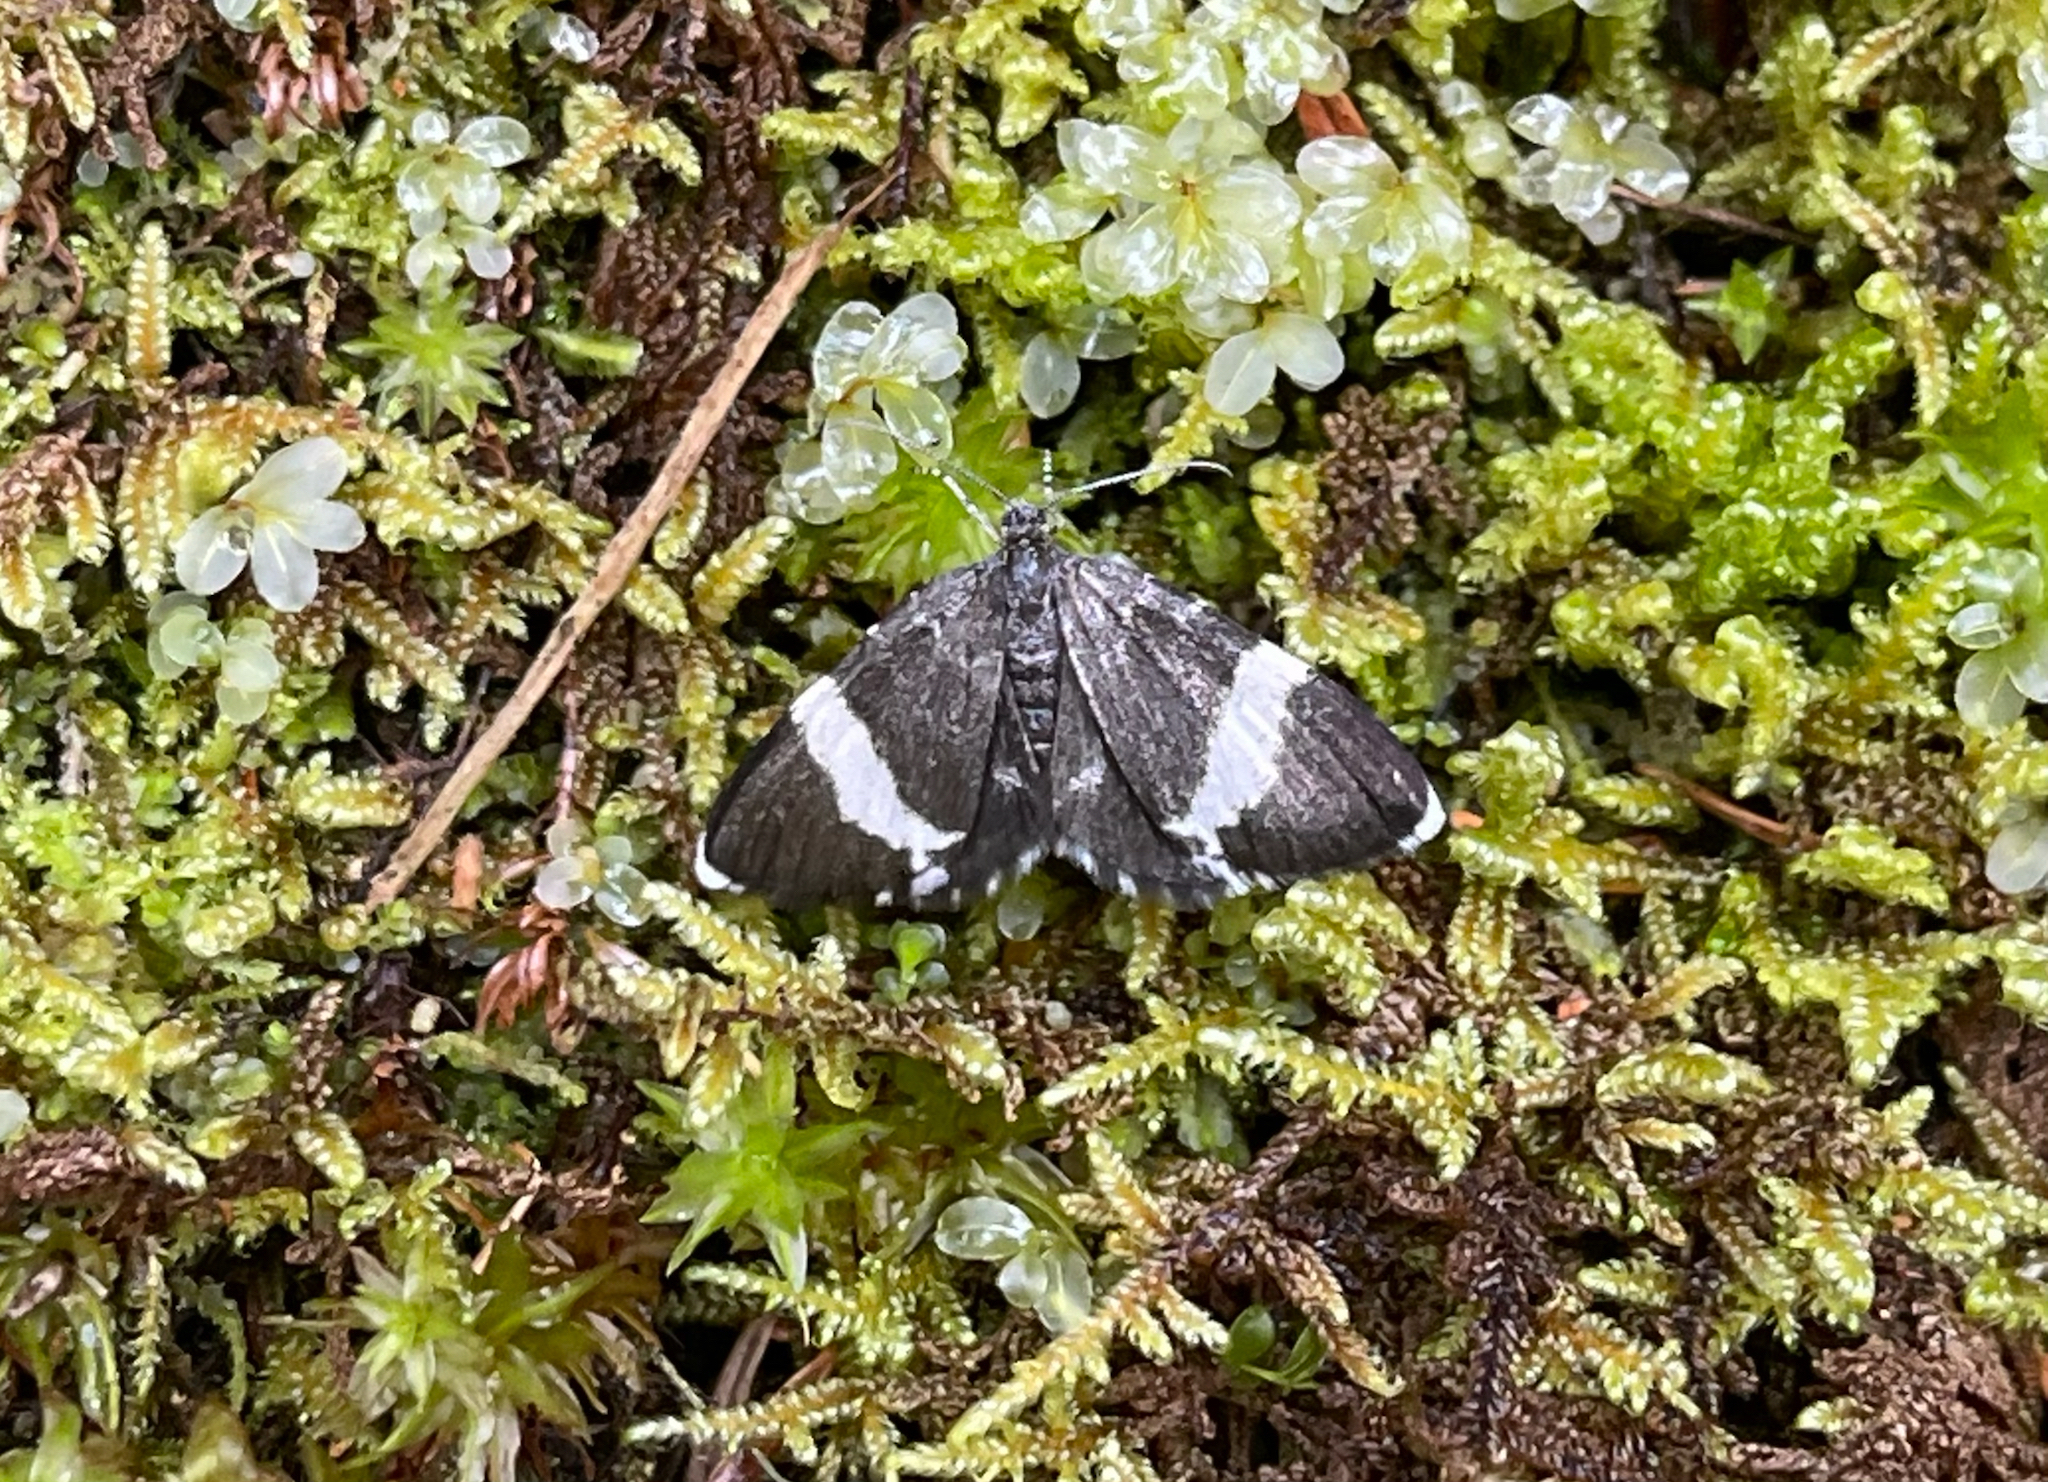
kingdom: Animalia
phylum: Arthropoda
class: Insecta
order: Lepidoptera
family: Geometridae
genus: Trichodezia
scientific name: Trichodezia albovittata
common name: White striped black
